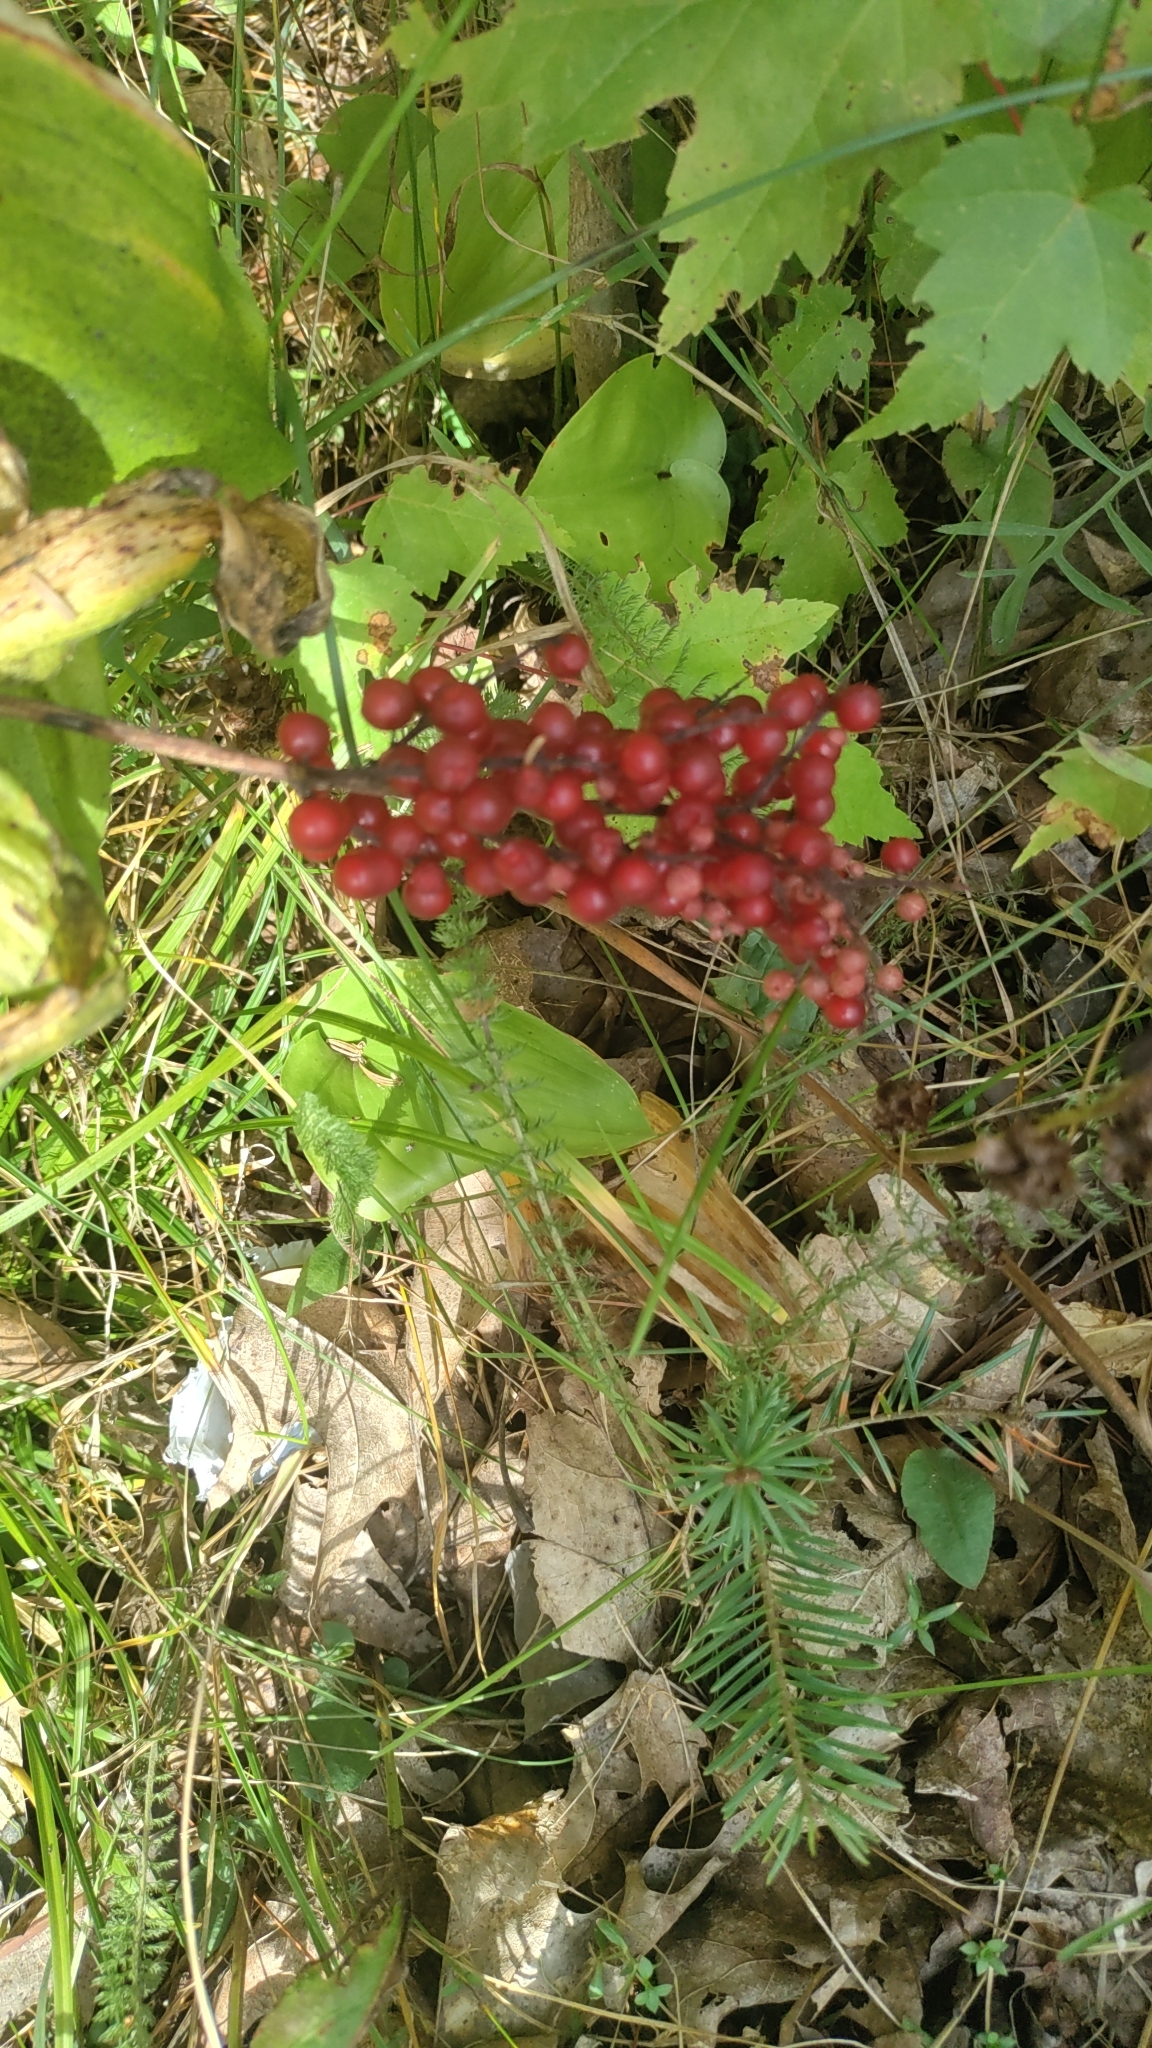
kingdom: Plantae
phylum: Tracheophyta
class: Liliopsida
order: Asparagales
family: Asparagaceae
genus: Maianthemum
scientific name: Maianthemum racemosum
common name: False spikenard
